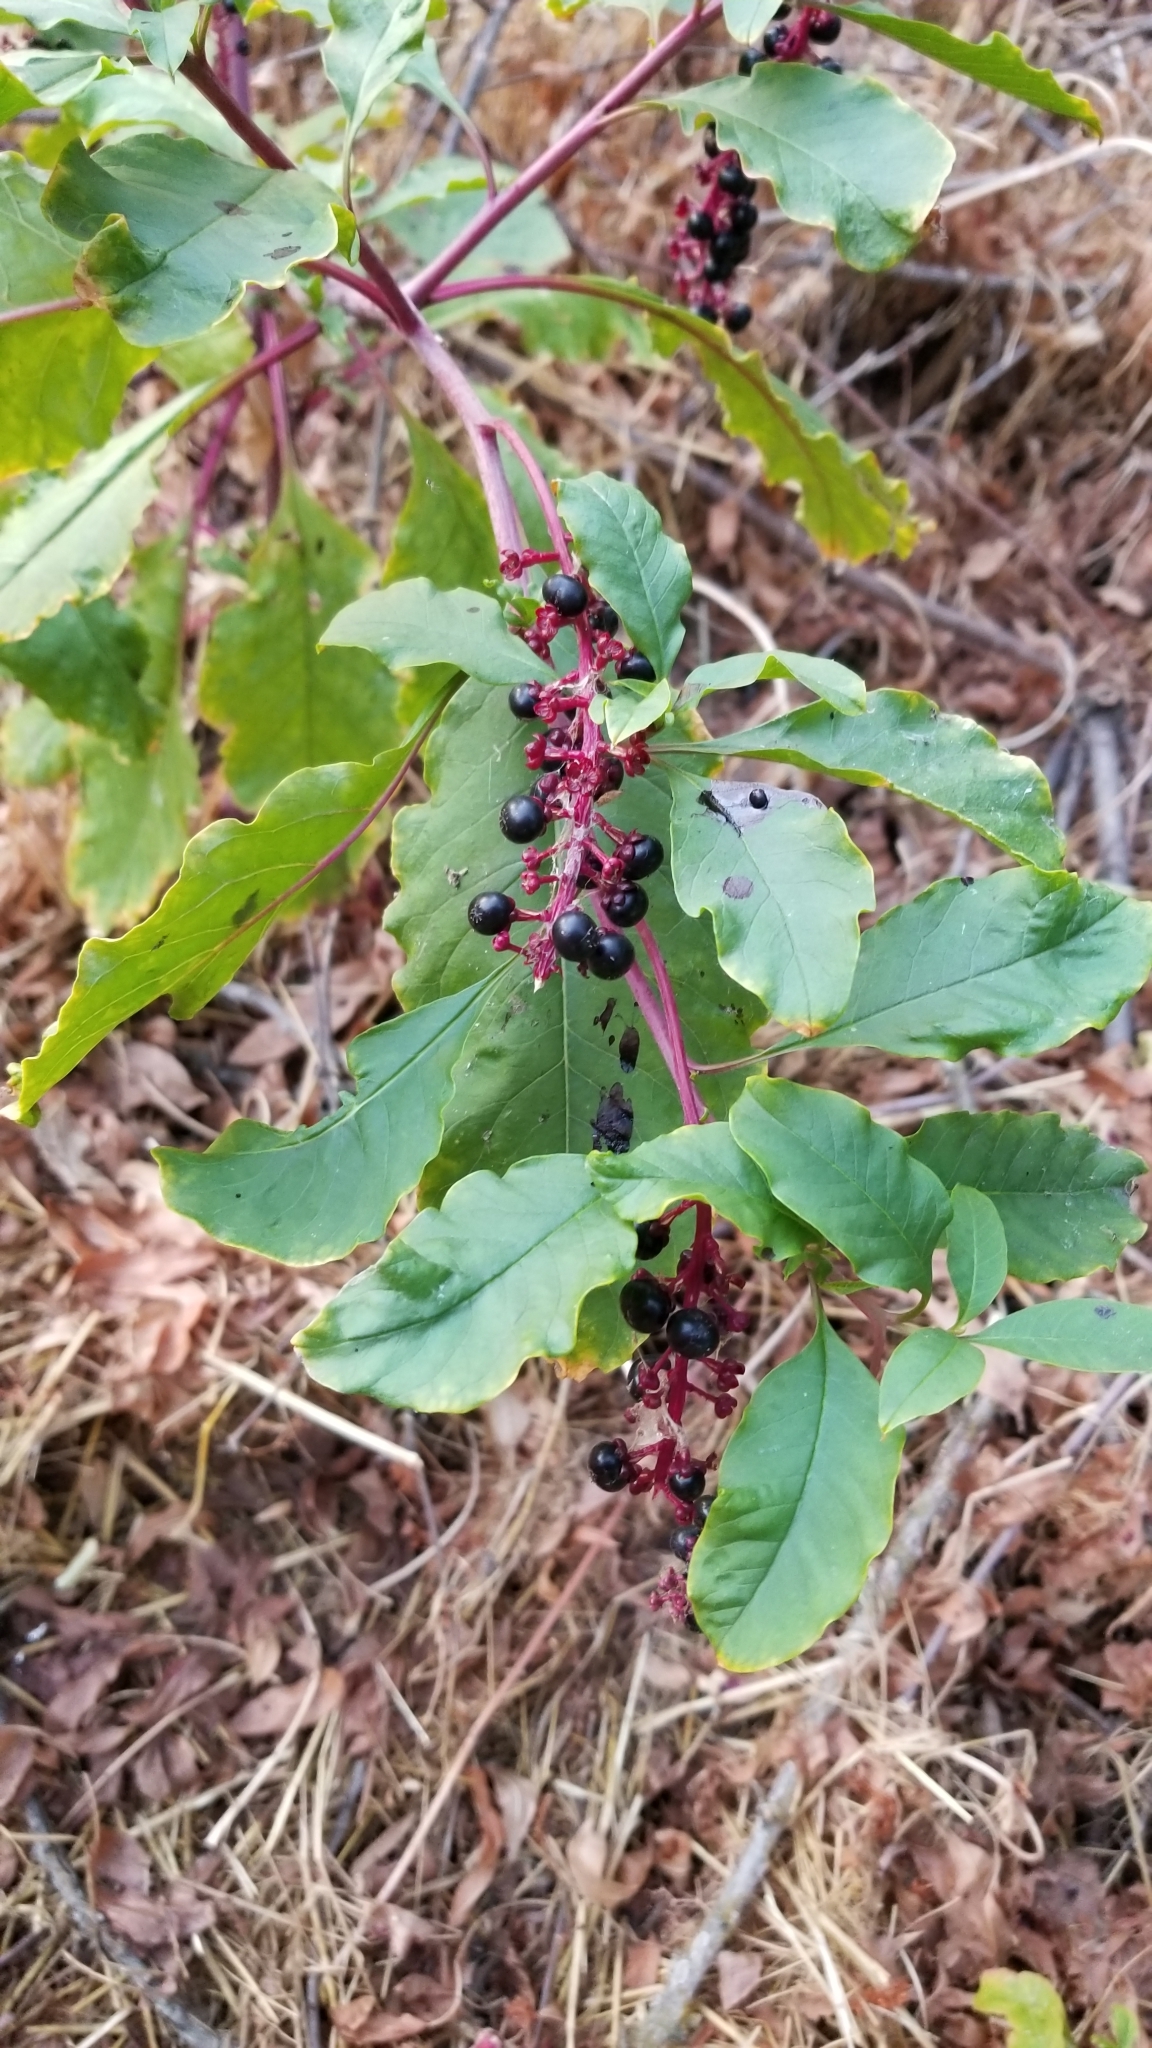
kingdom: Plantae
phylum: Tracheophyta
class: Magnoliopsida
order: Caryophyllales
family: Phytolaccaceae
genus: Phytolacca
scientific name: Phytolacca americana
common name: American pokeweed
